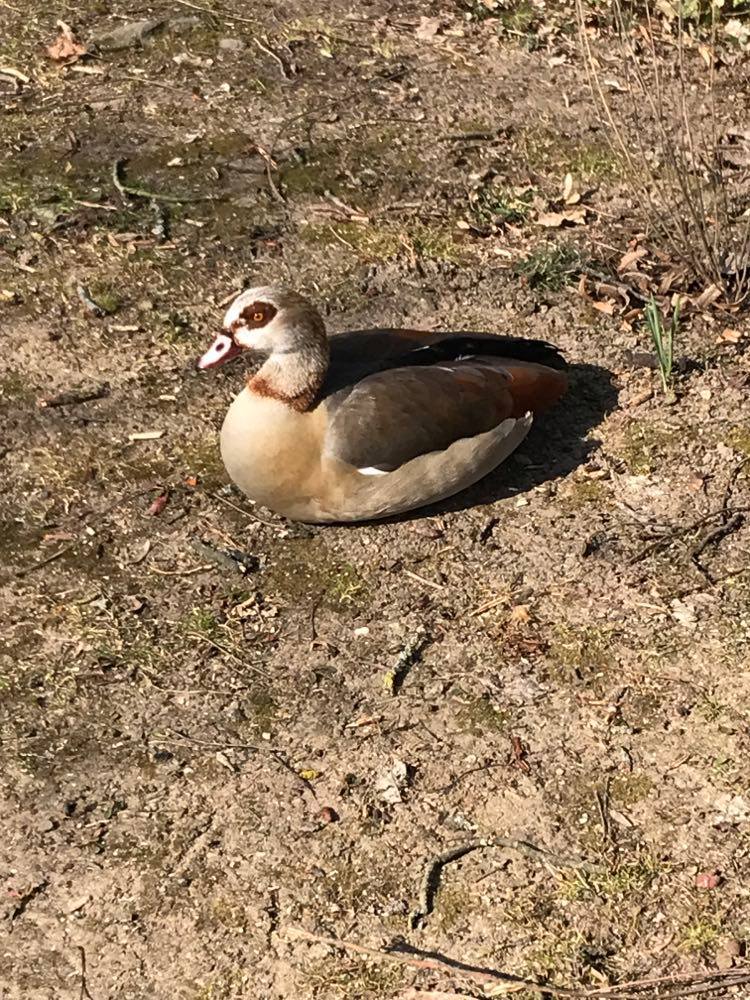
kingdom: Animalia
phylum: Chordata
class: Aves
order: Anseriformes
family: Anatidae
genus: Alopochen
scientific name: Alopochen aegyptiaca
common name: Egyptian goose
